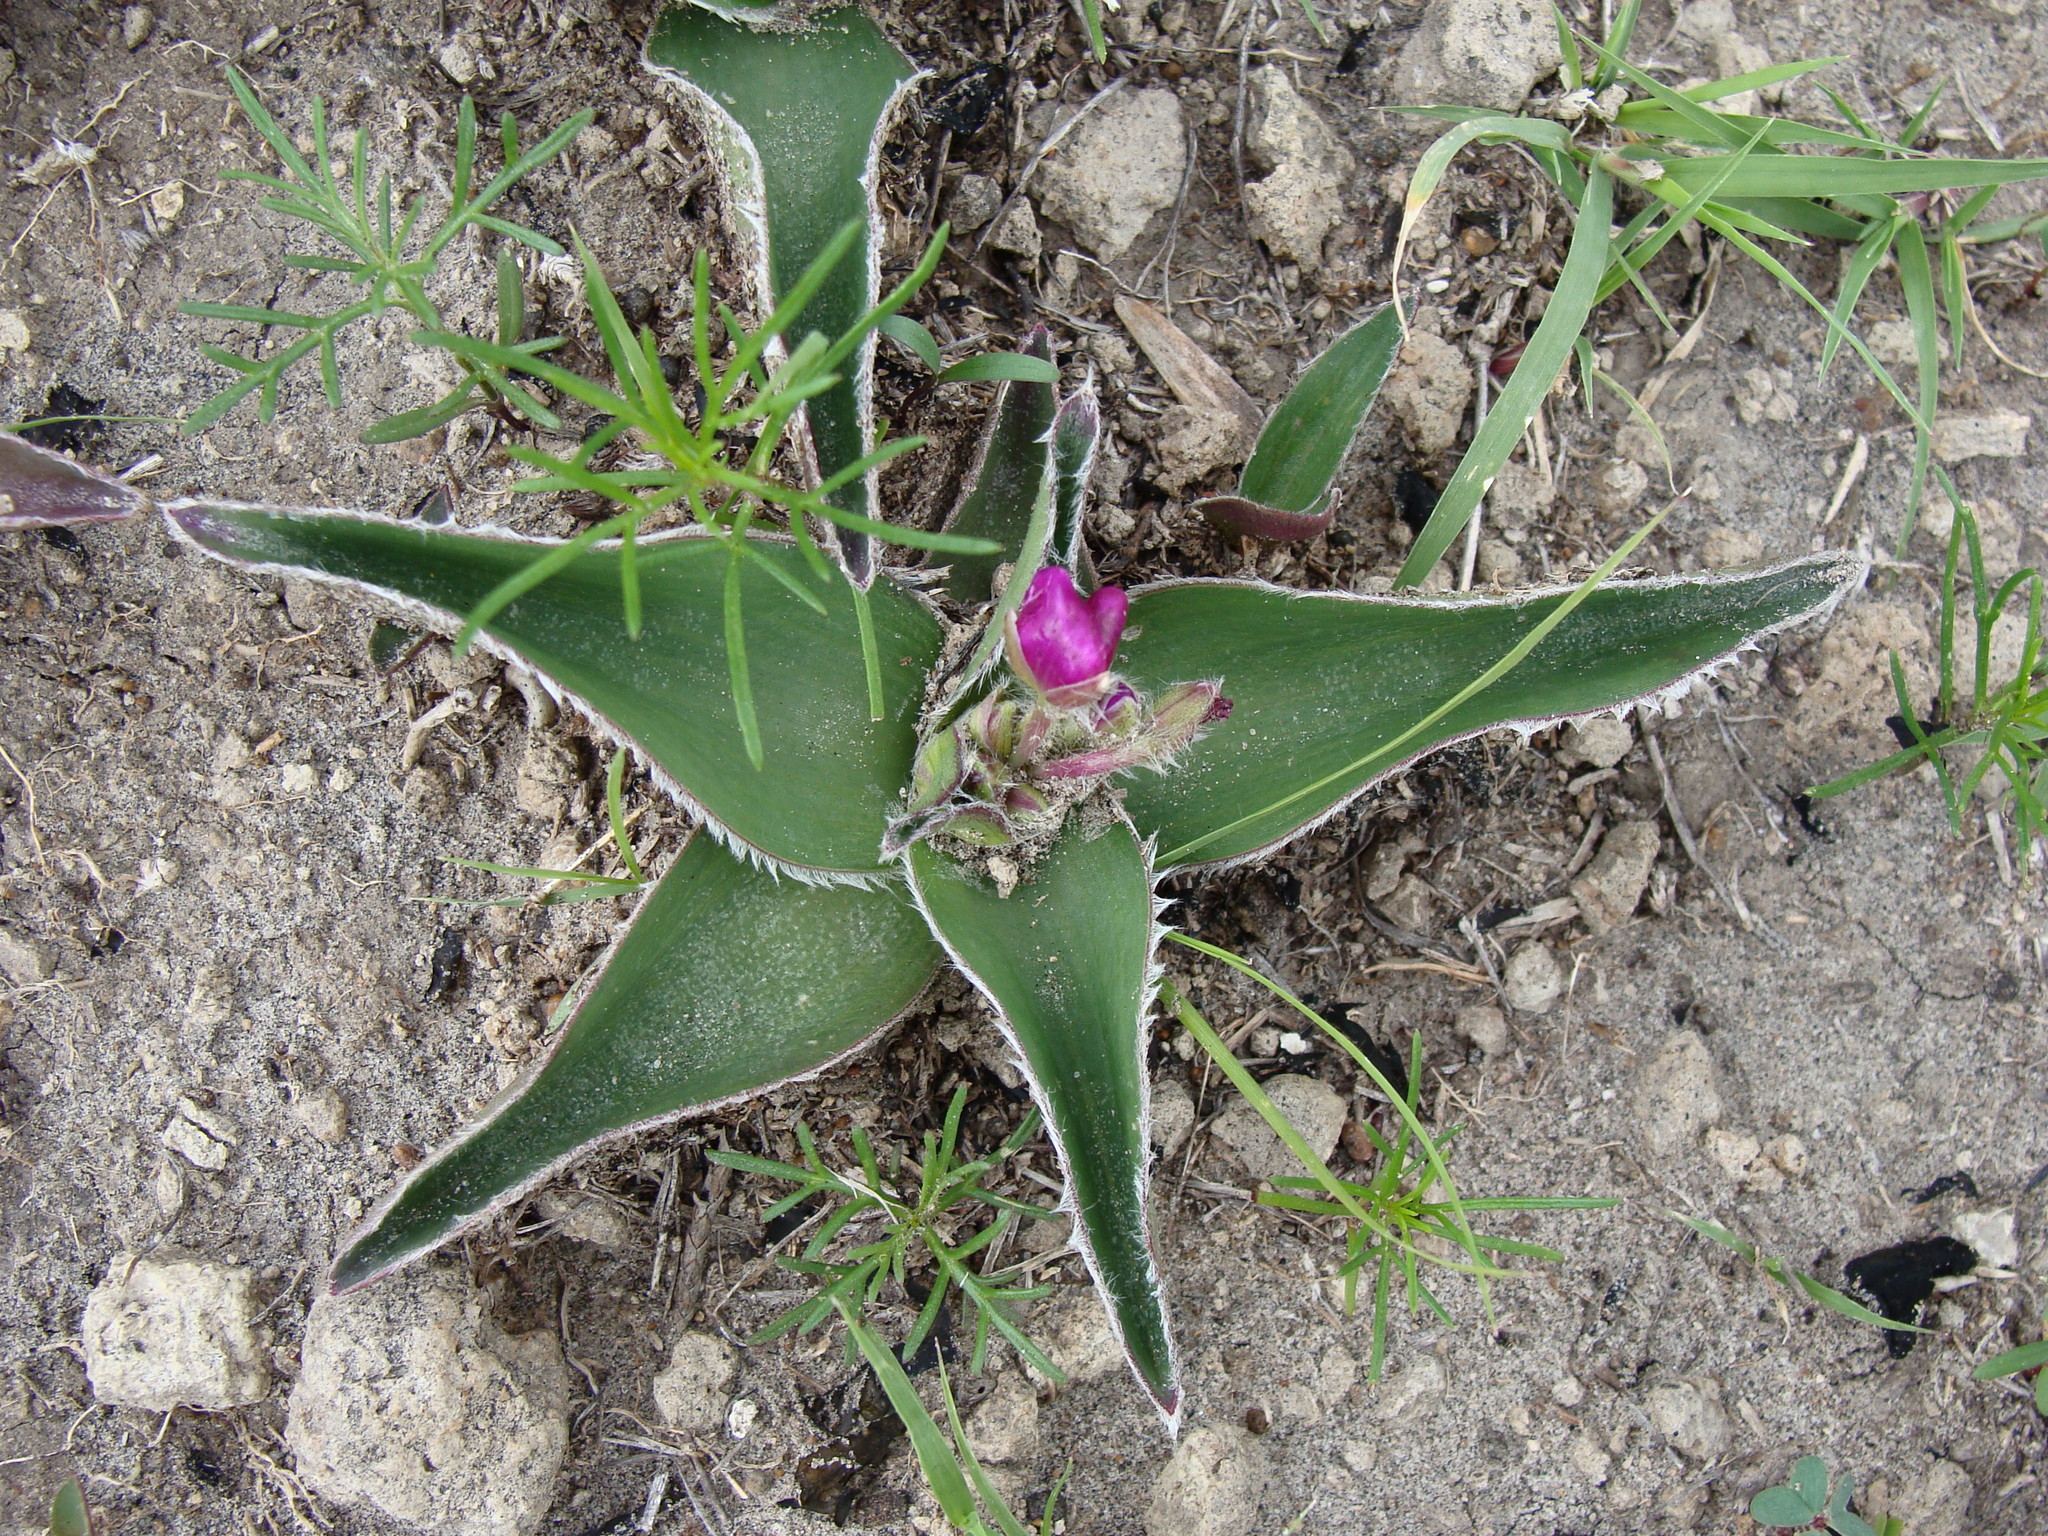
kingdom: Plantae
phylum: Tracheophyta
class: Liliopsida
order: Commelinales
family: Commelinaceae
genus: Tradescantia
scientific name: Tradescantia crassifolia
